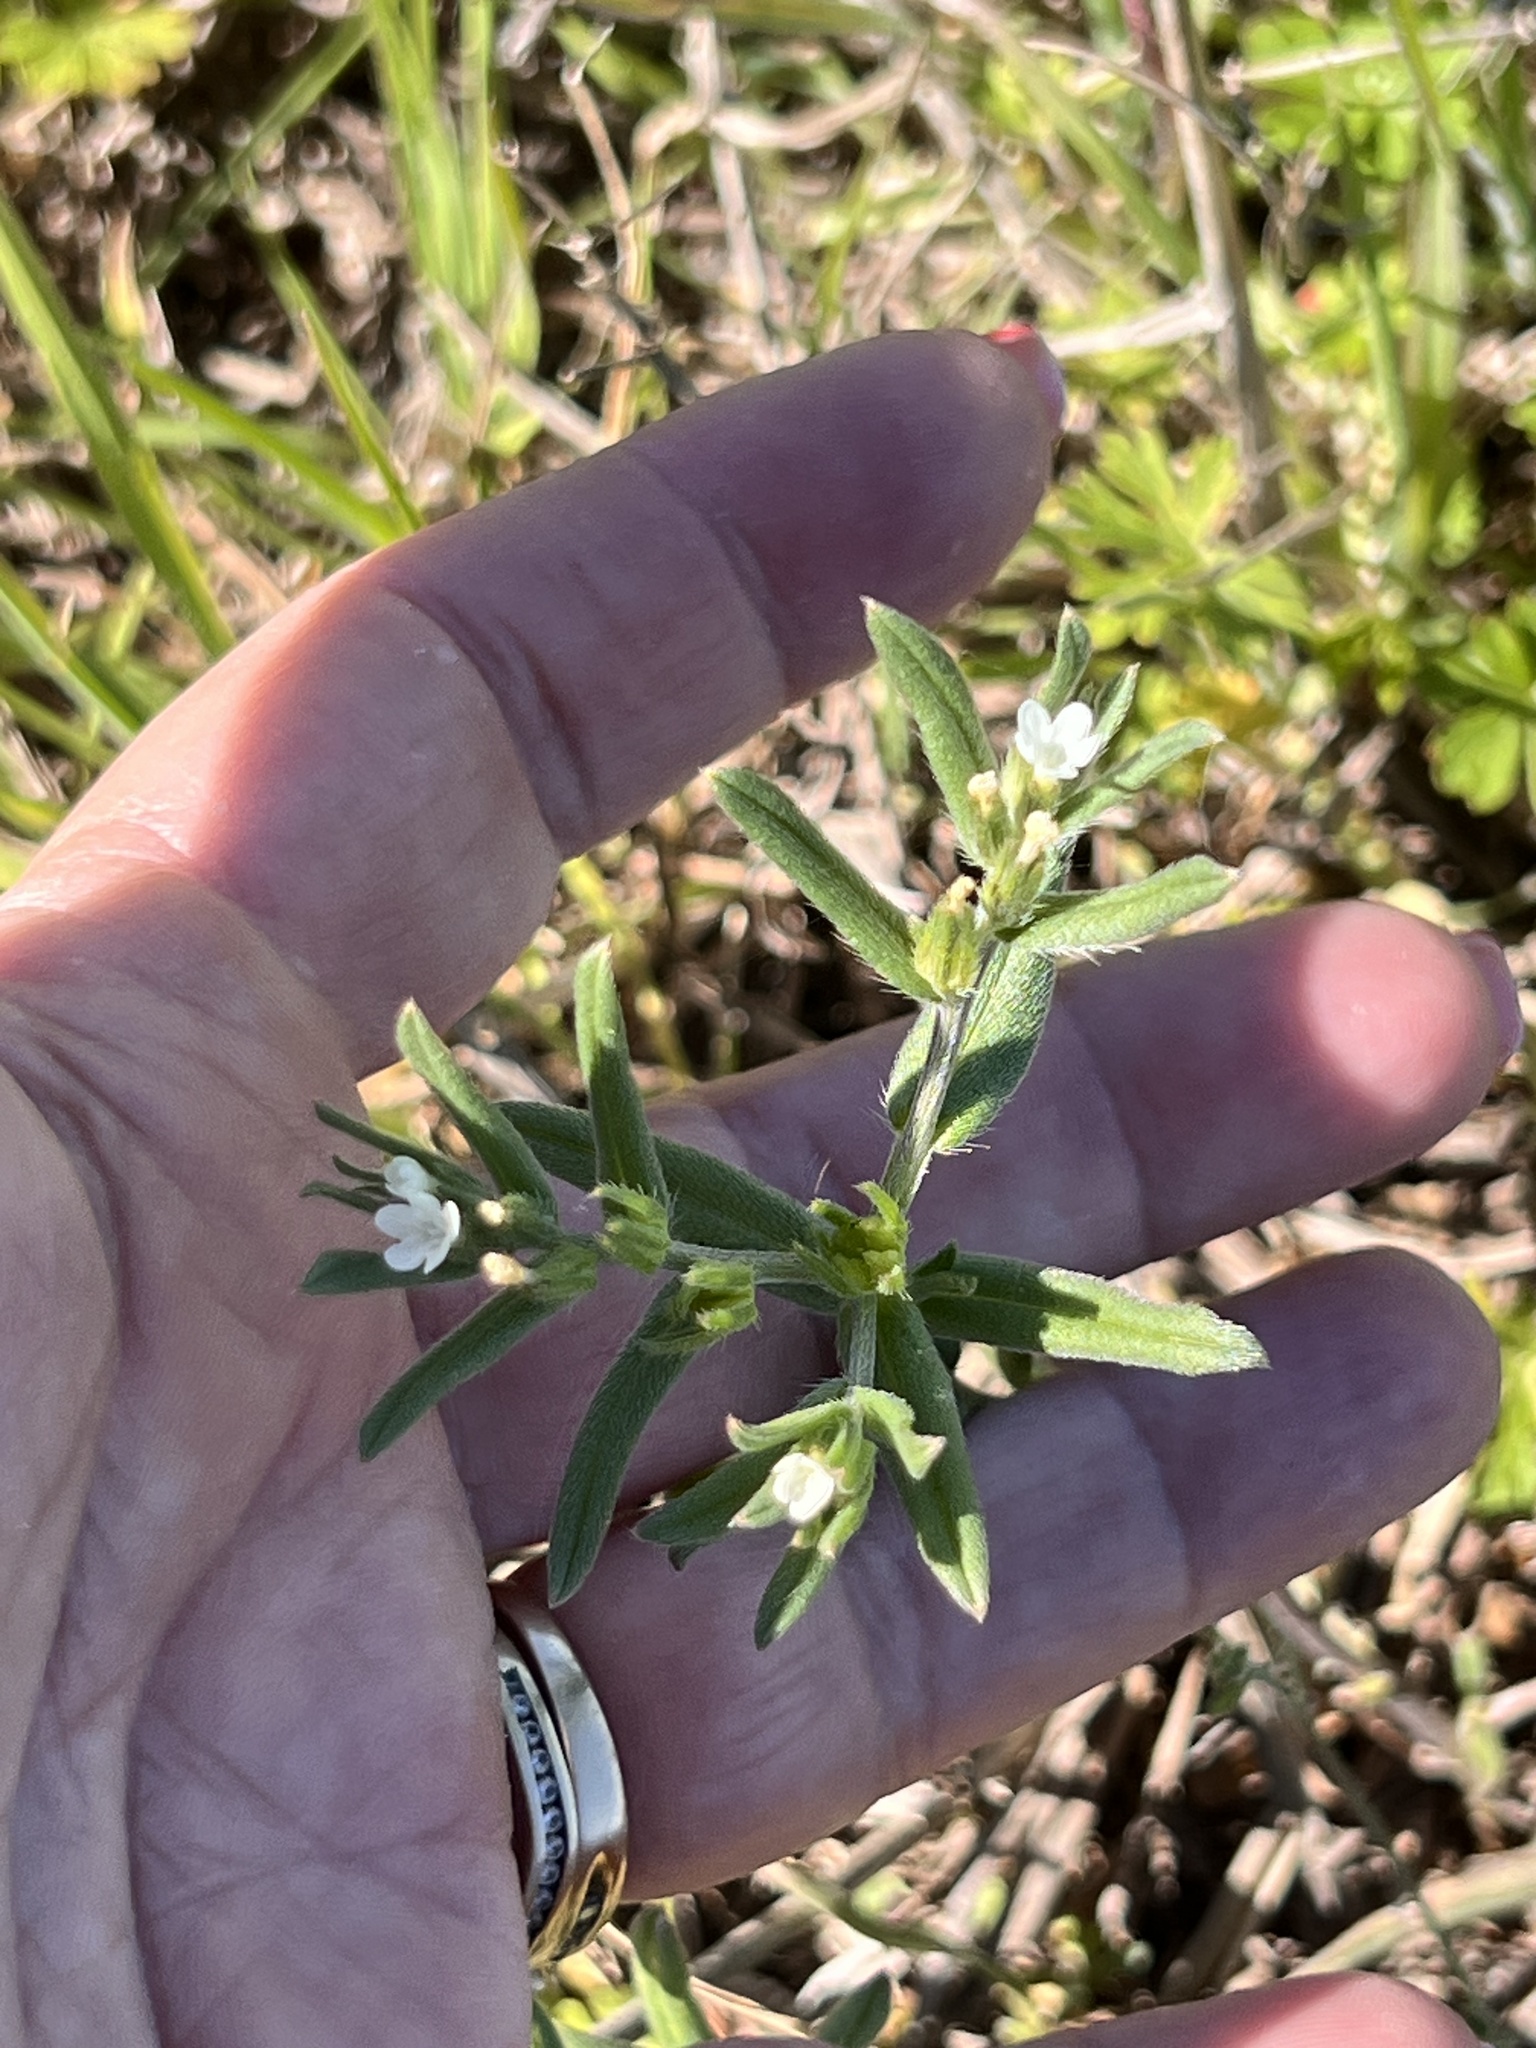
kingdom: Plantae
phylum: Tracheophyta
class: Magnoliopsida
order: Boraginales
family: Boraginaceae
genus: Buglossoides
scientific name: Buglossoides arvensis
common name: Corn gromwell
